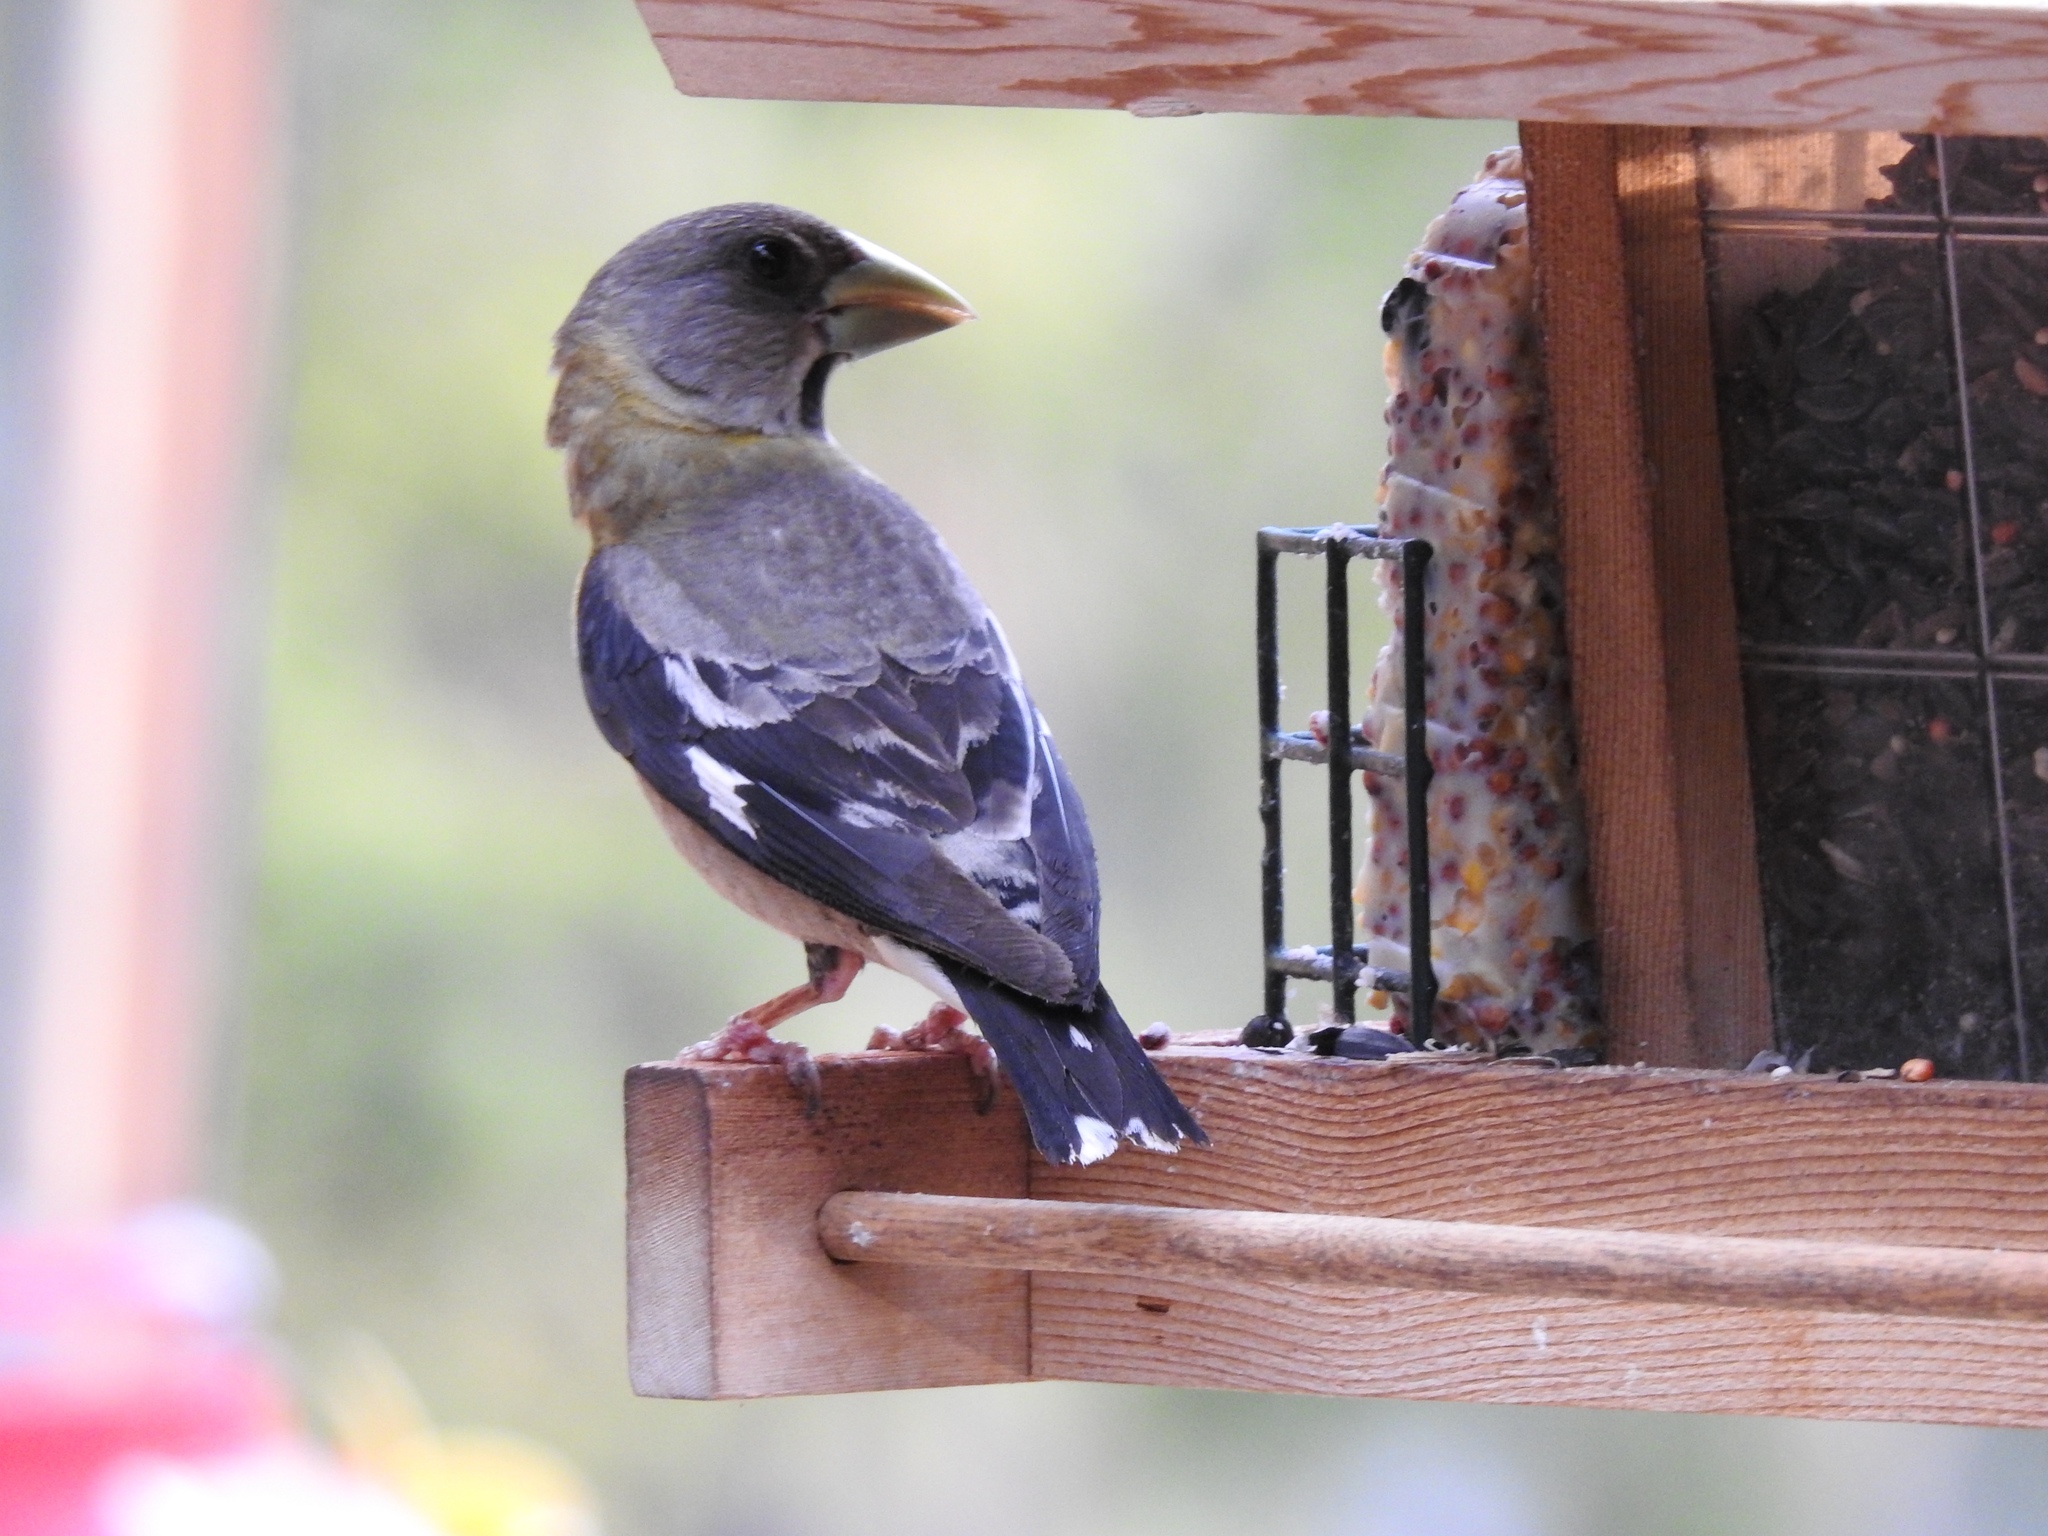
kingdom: Animalia
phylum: Chordata
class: Aves
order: Passeriformes
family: Fringillidae
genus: Hesperiphona
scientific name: Hesperiphona vespertina
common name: Evening grosbeak
